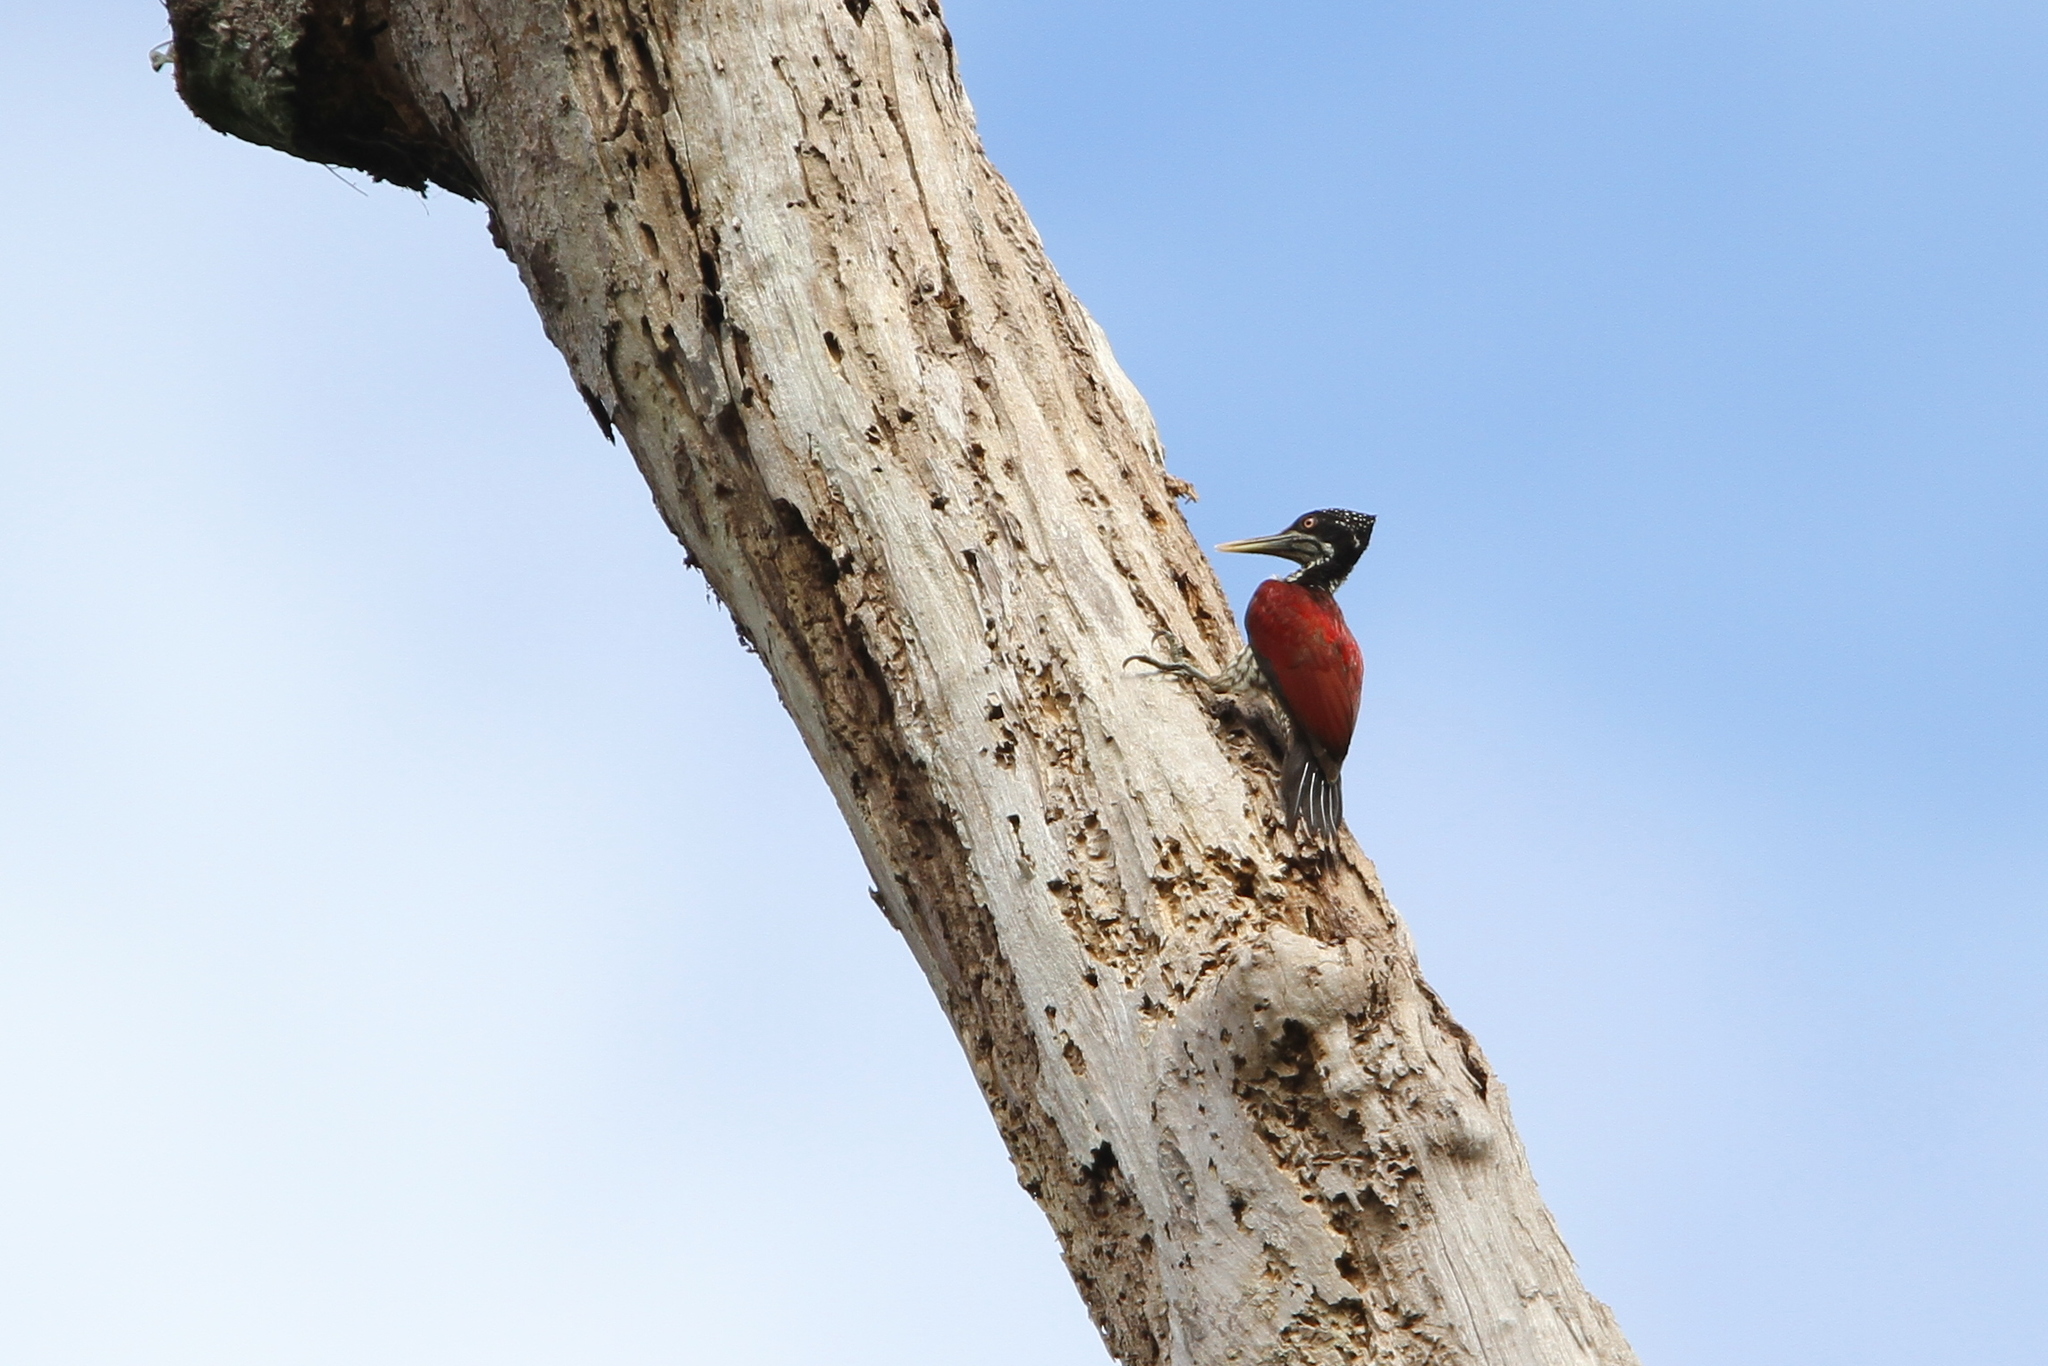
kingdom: Animalia
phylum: Chordata
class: Aves
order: Piciformes
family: Picidae
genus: Chrysocolaptes
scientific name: Chrysocolaptes stricklandi
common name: Crimson-backed flameback
